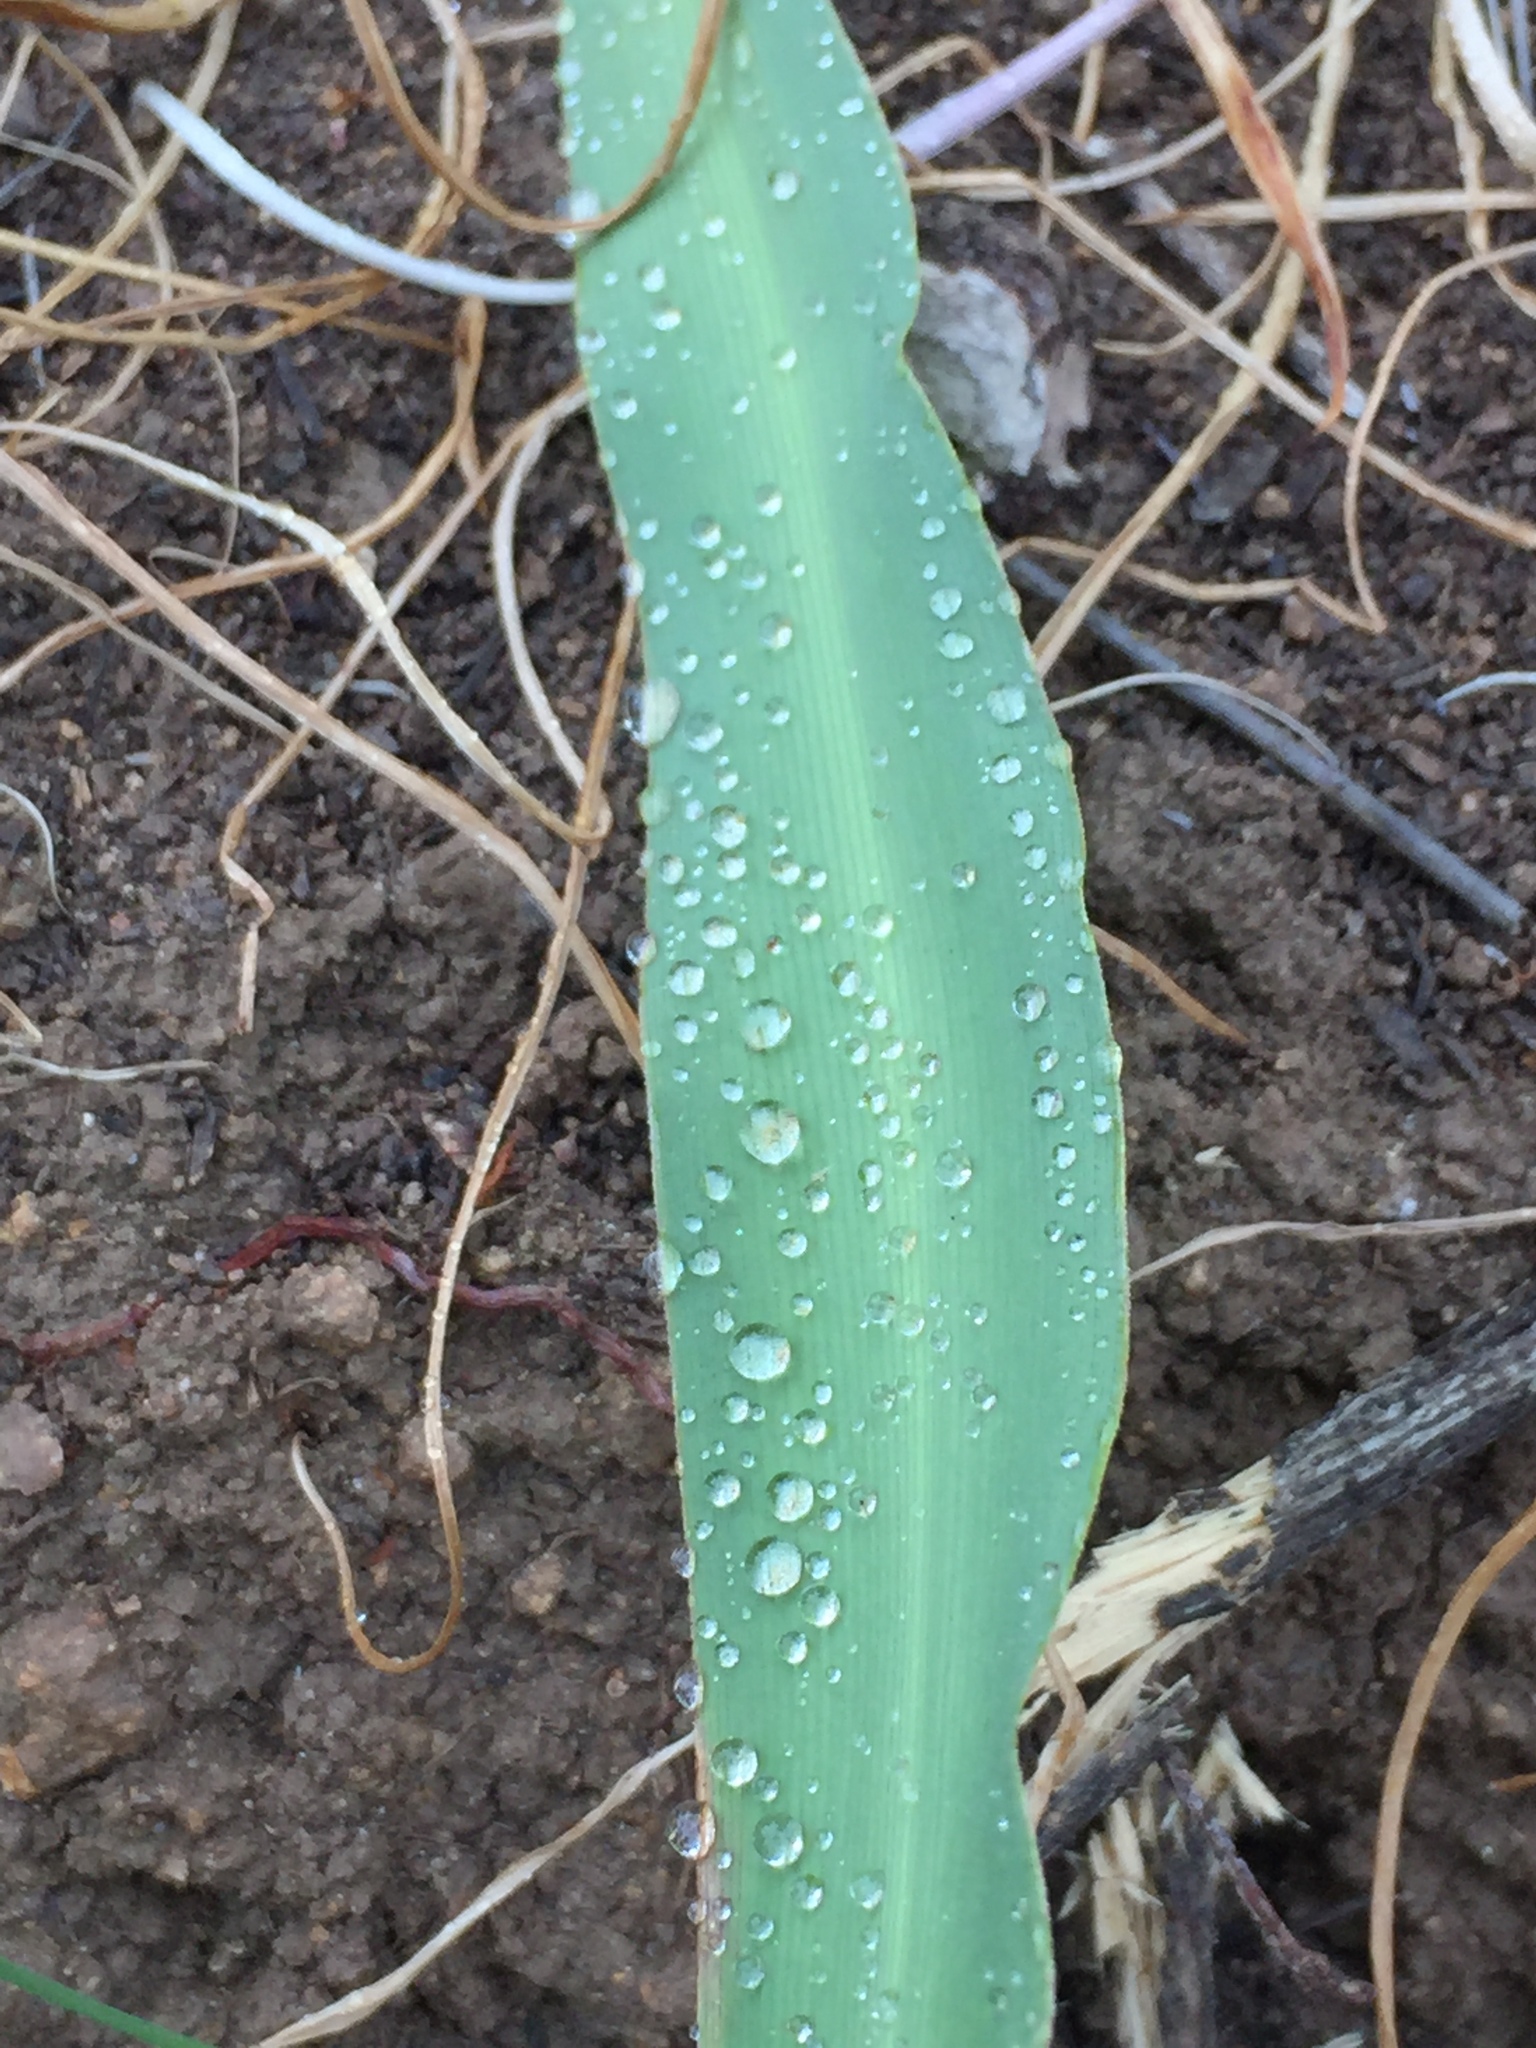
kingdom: Plantae
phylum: Tracheophyta
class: Liliopsida
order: Asparagales
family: Asparagaceae
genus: Chlorogalum
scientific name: Chlorogalum pomeridianum
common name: Amole
